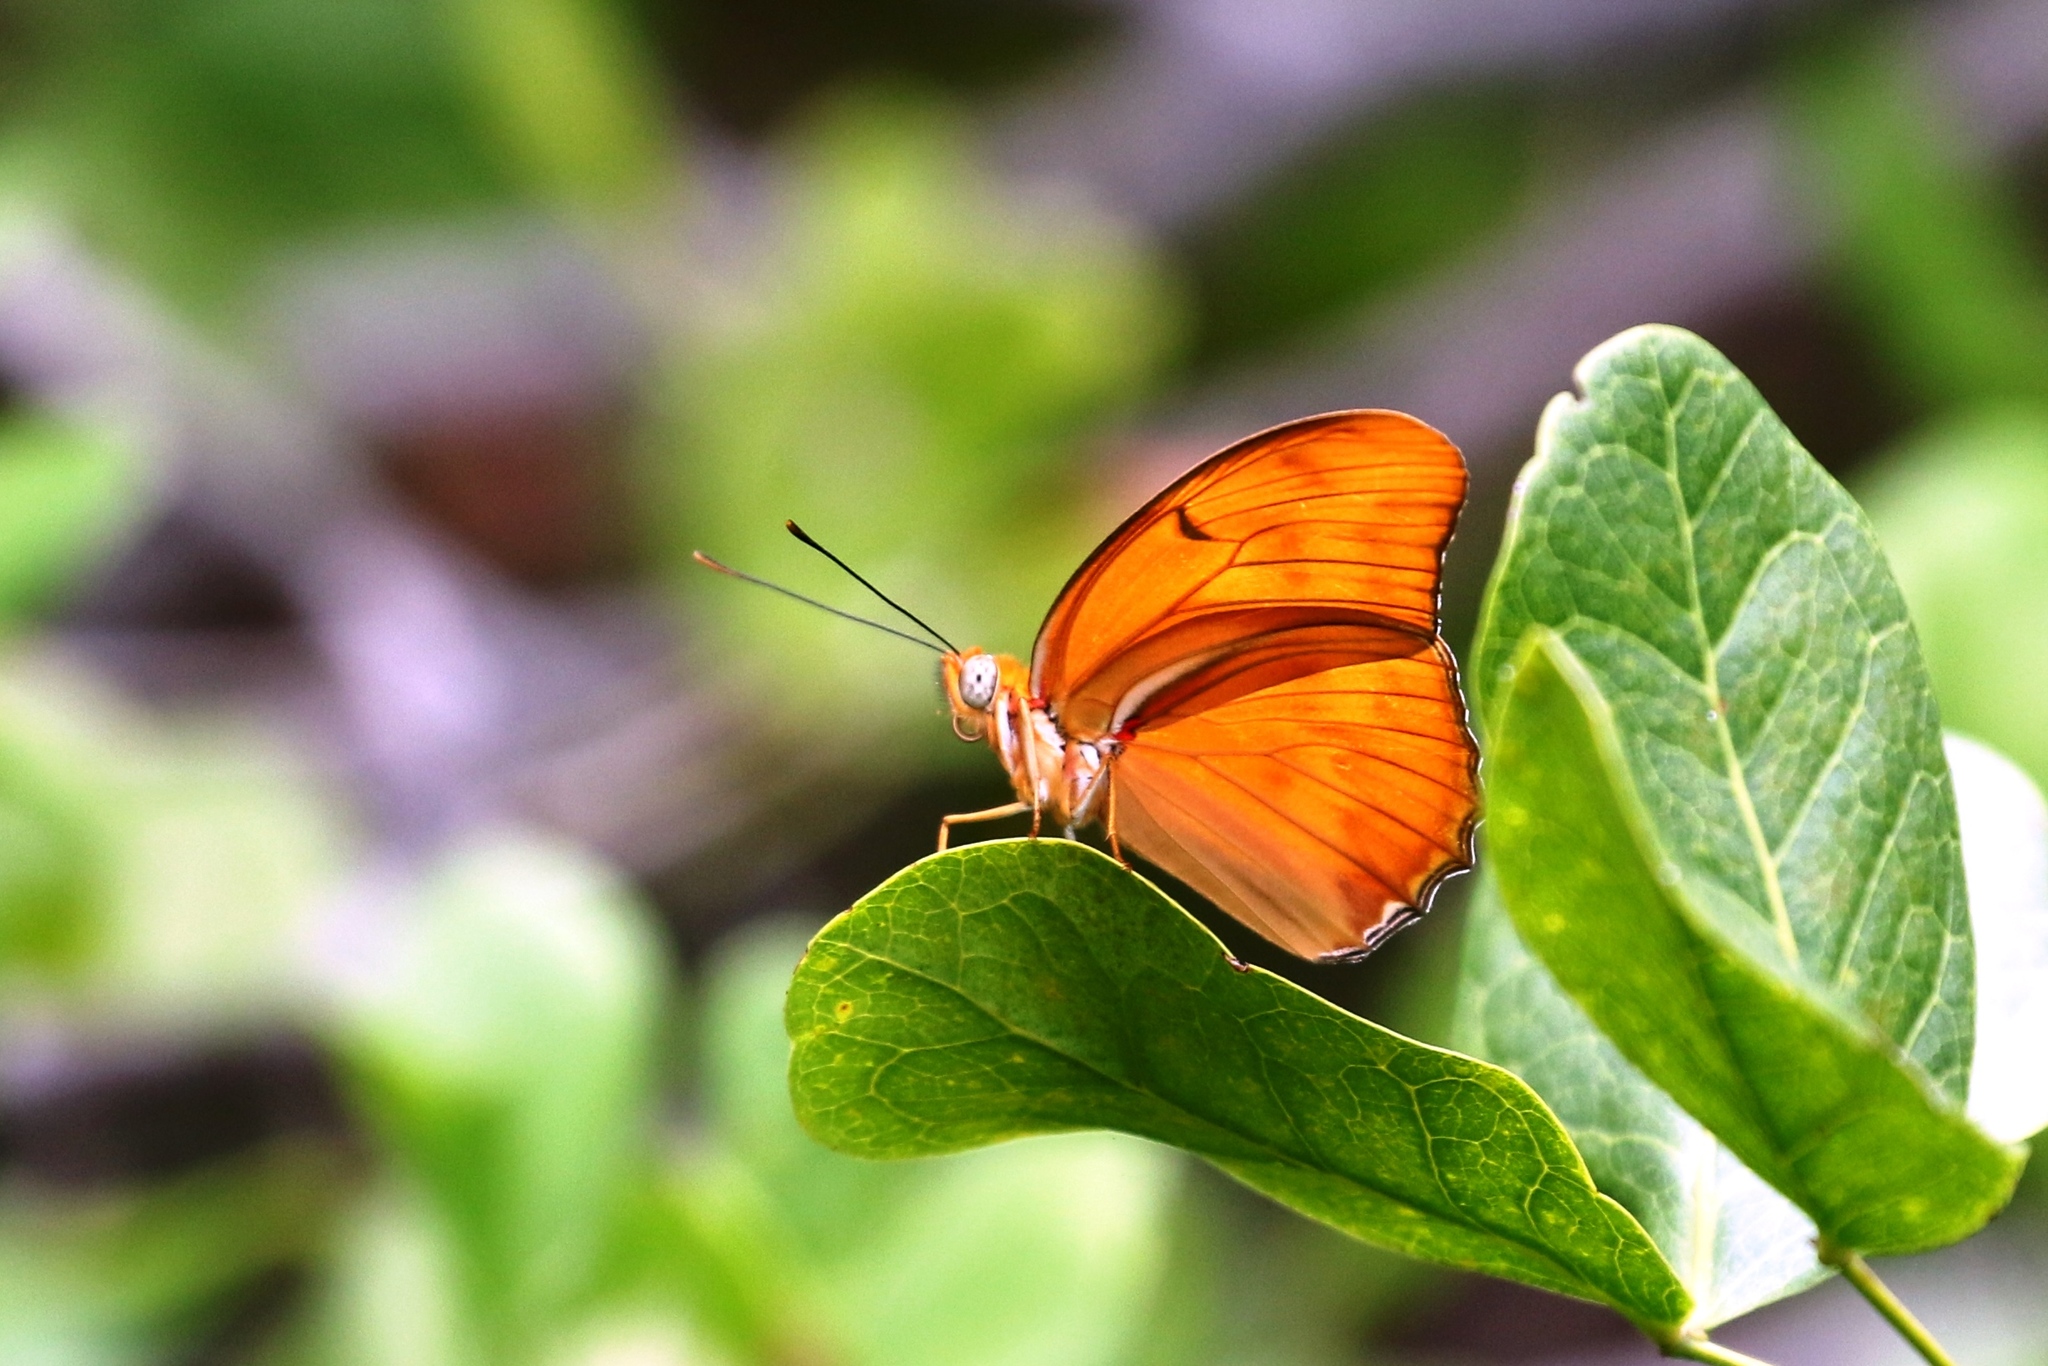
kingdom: Animalia
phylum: Arthropoda
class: Insecta
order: Lepidoptera
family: Nymphalidae
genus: Dryas
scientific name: Dryas iulia
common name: Flambeau
